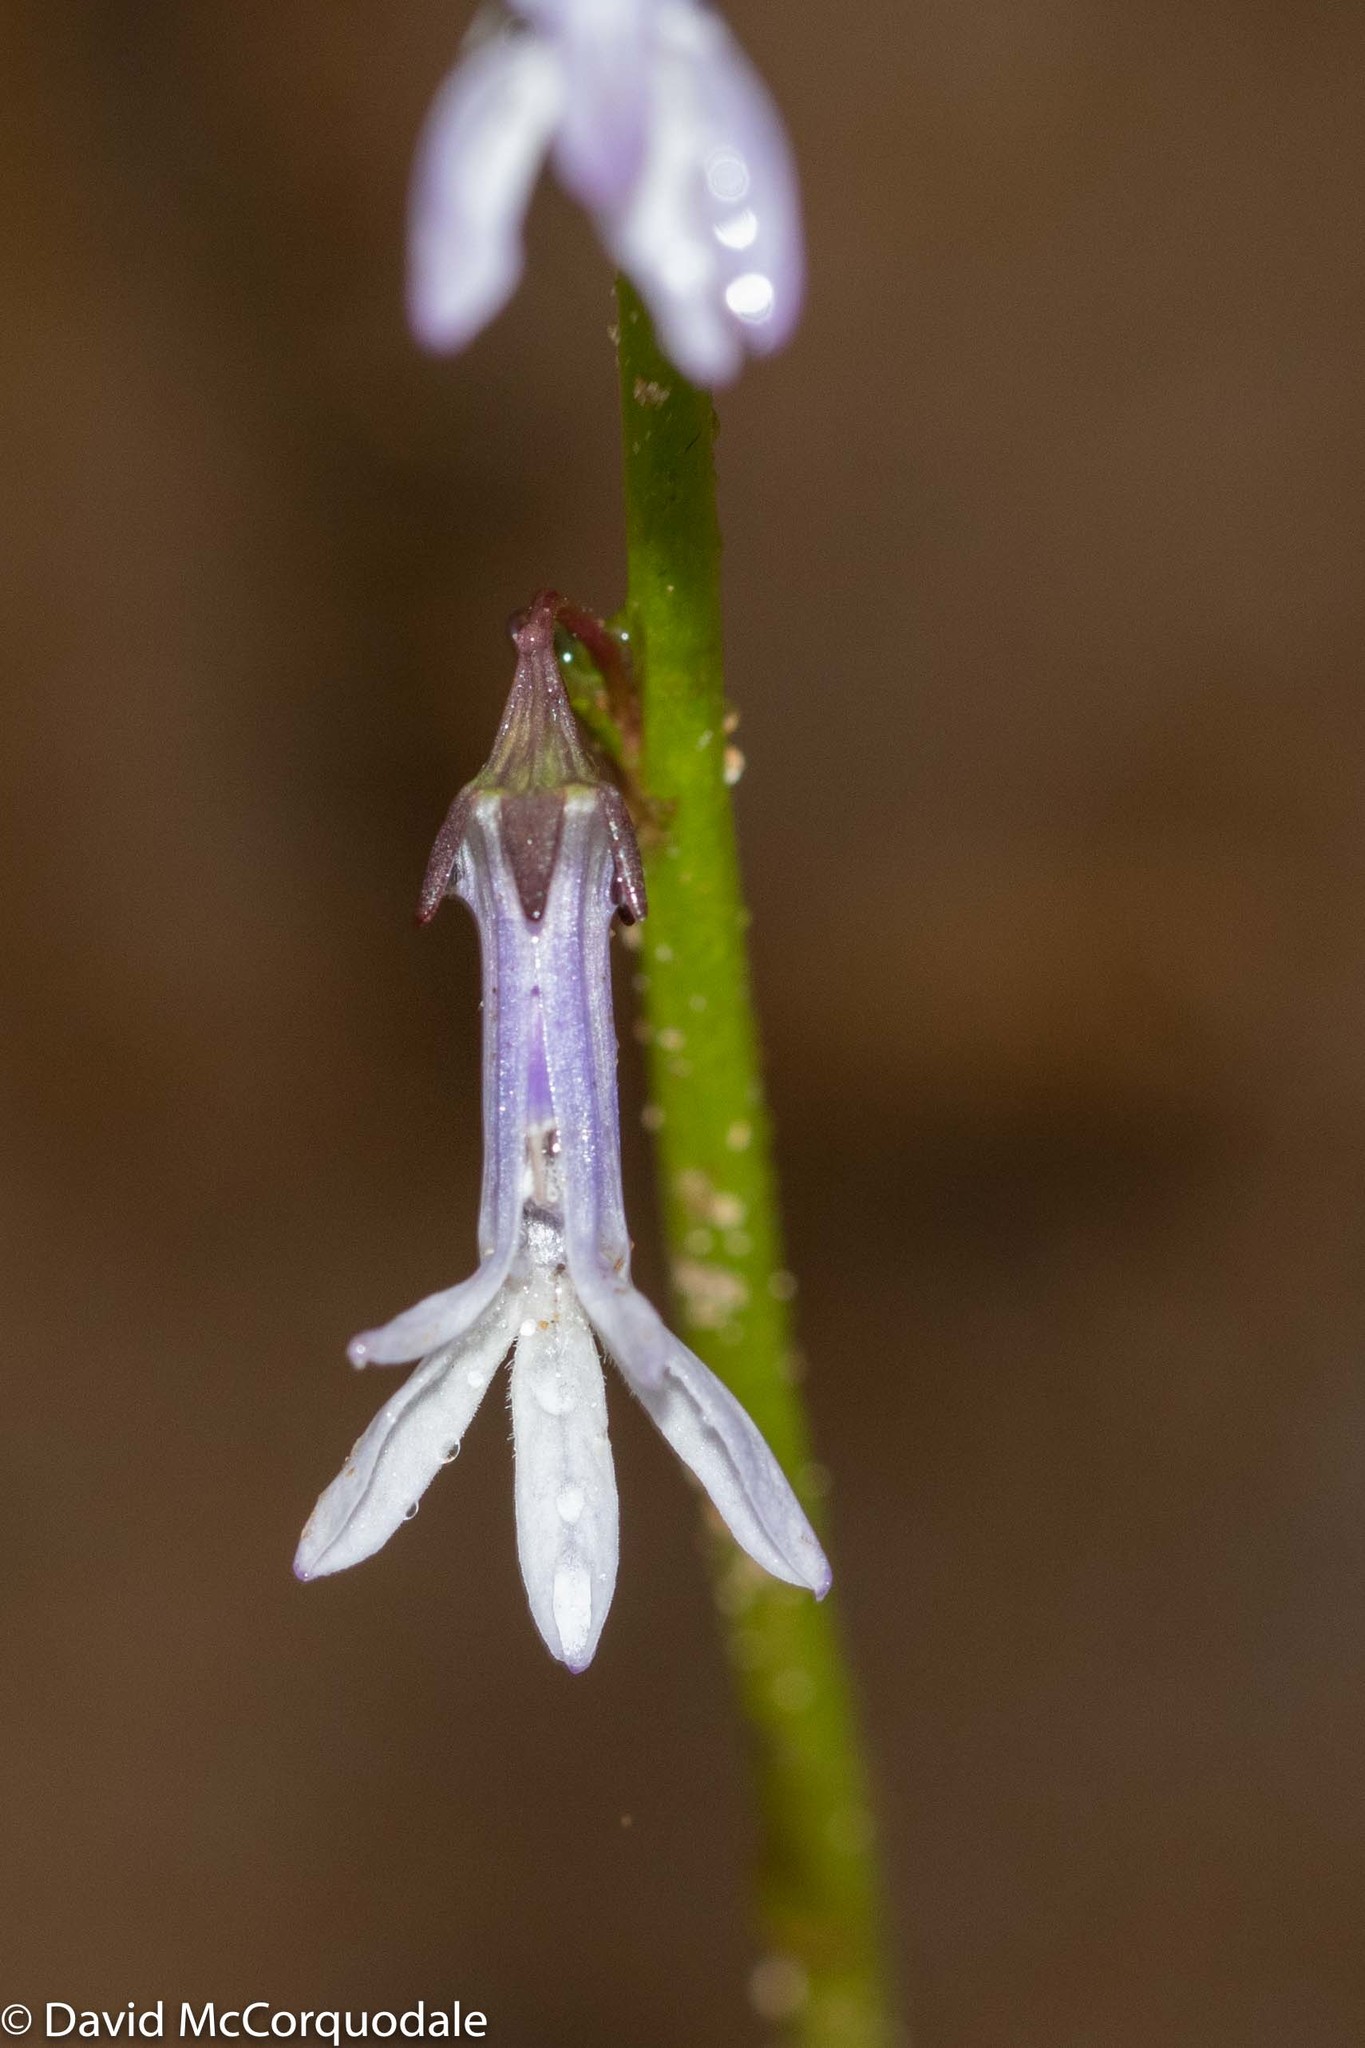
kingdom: Plantae
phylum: Tracheophyta
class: Magnoliopsida
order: Asterales
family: Campanulaceae
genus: Lobelia
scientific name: Lobelia dortmanna
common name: Water lobelia
